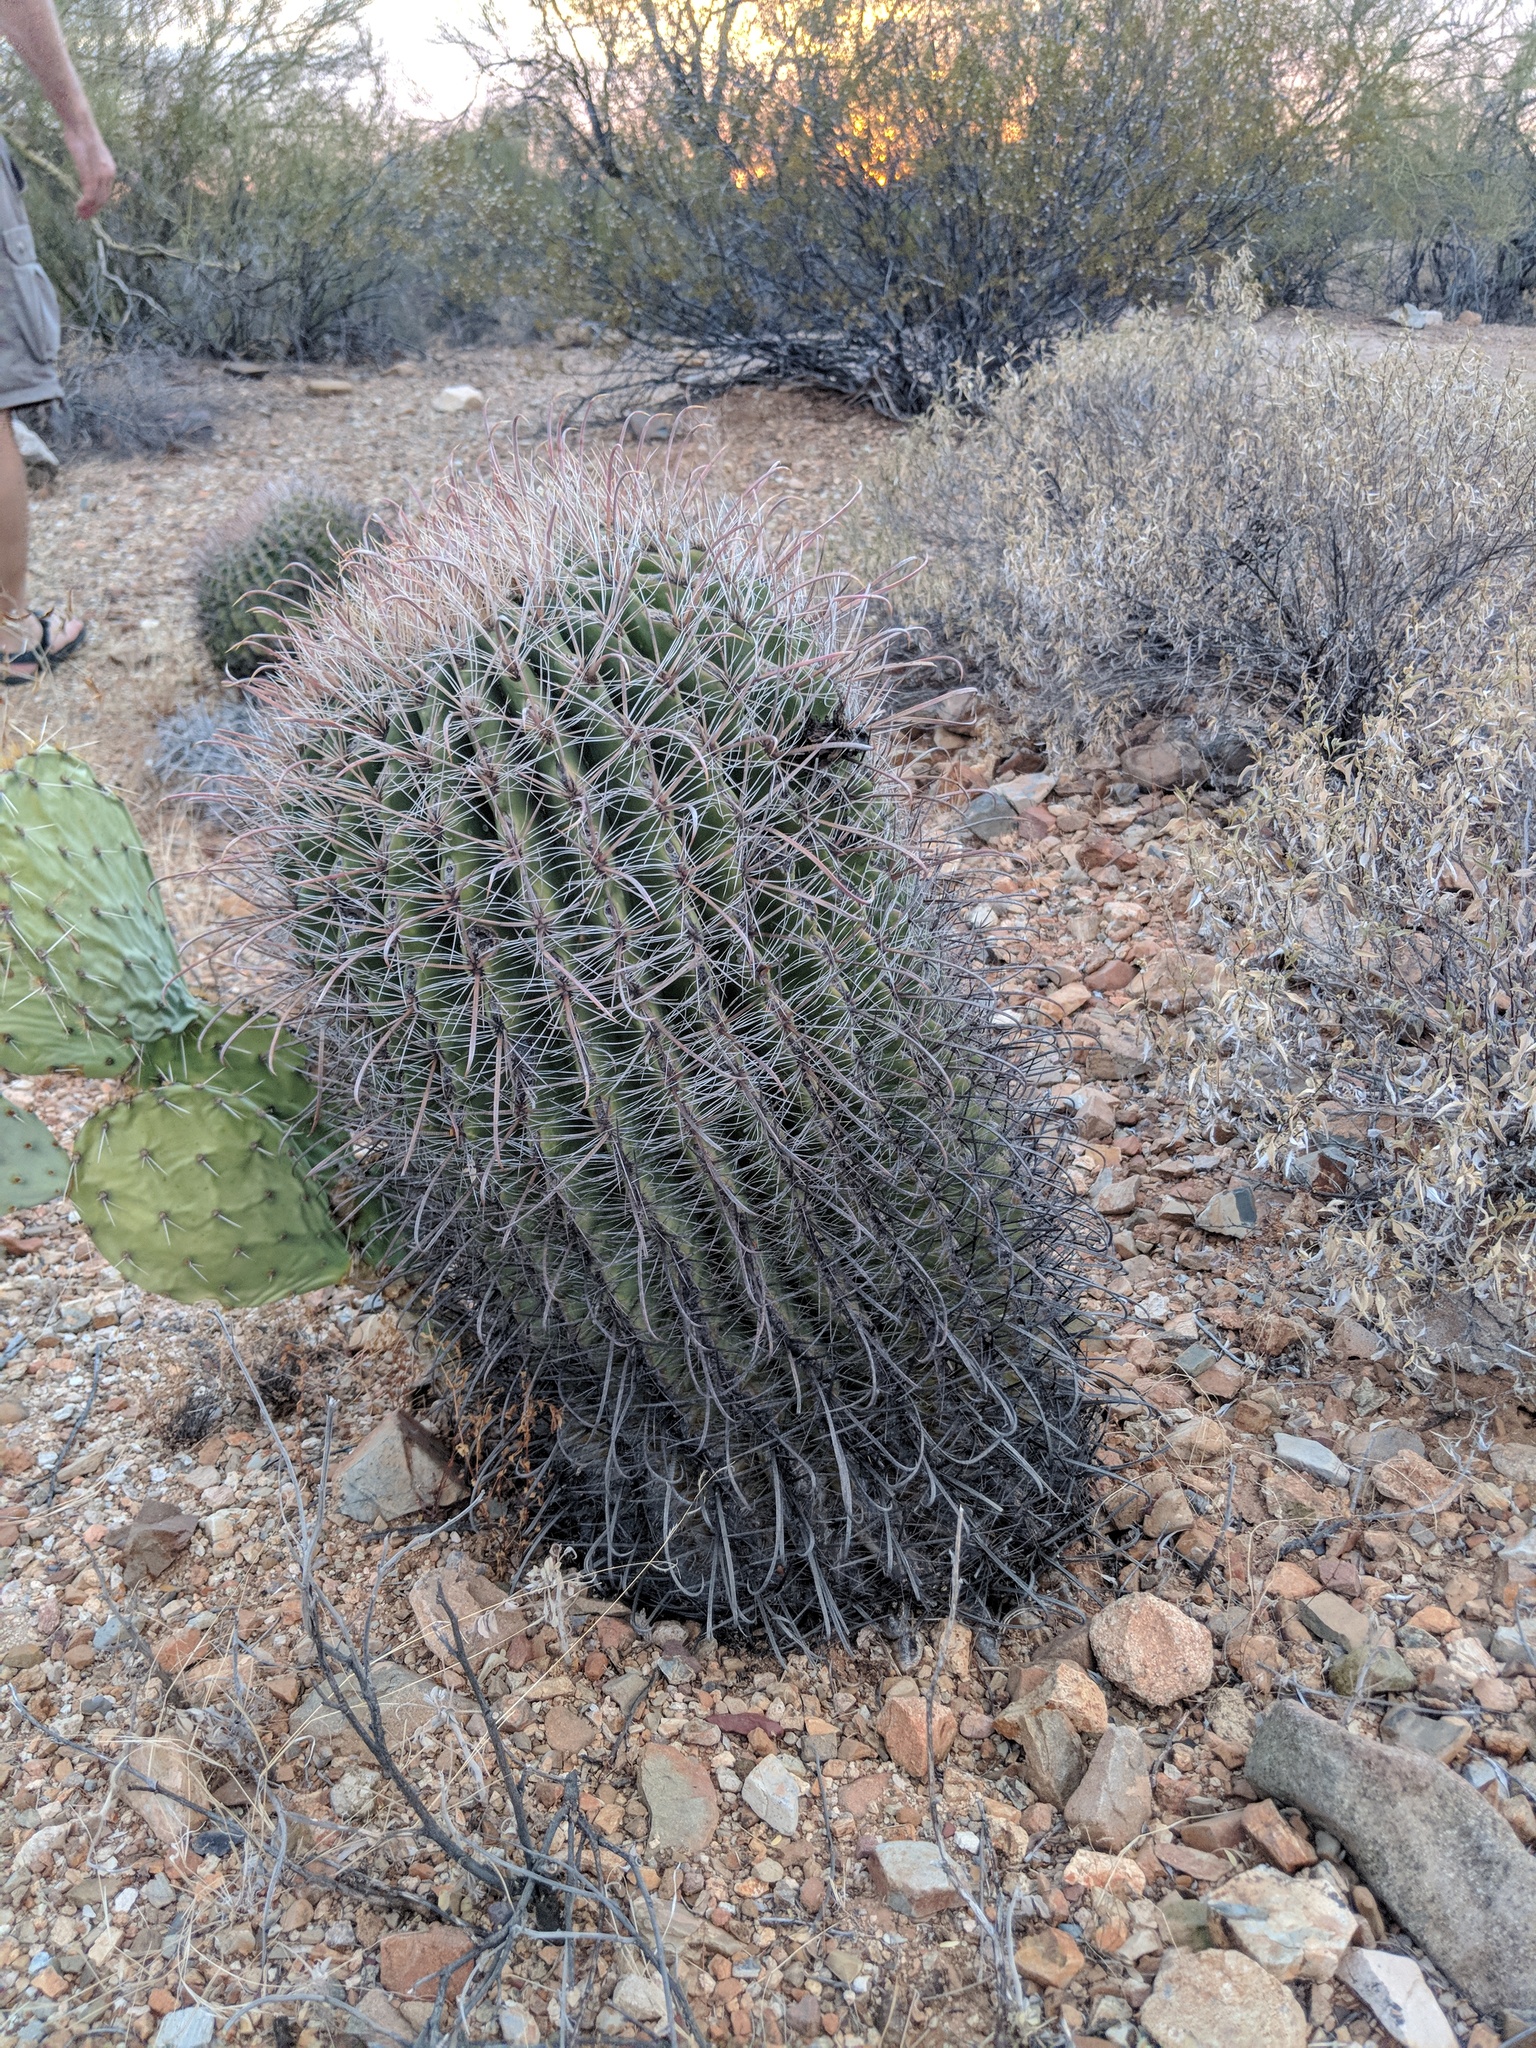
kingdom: Plantae
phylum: Tracheophyta
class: Magnoliopsida
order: Caryophyllales
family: Cactaceae
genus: Ferocactus
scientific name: Ferocactus wislizeni
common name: Candy barrel cactus
